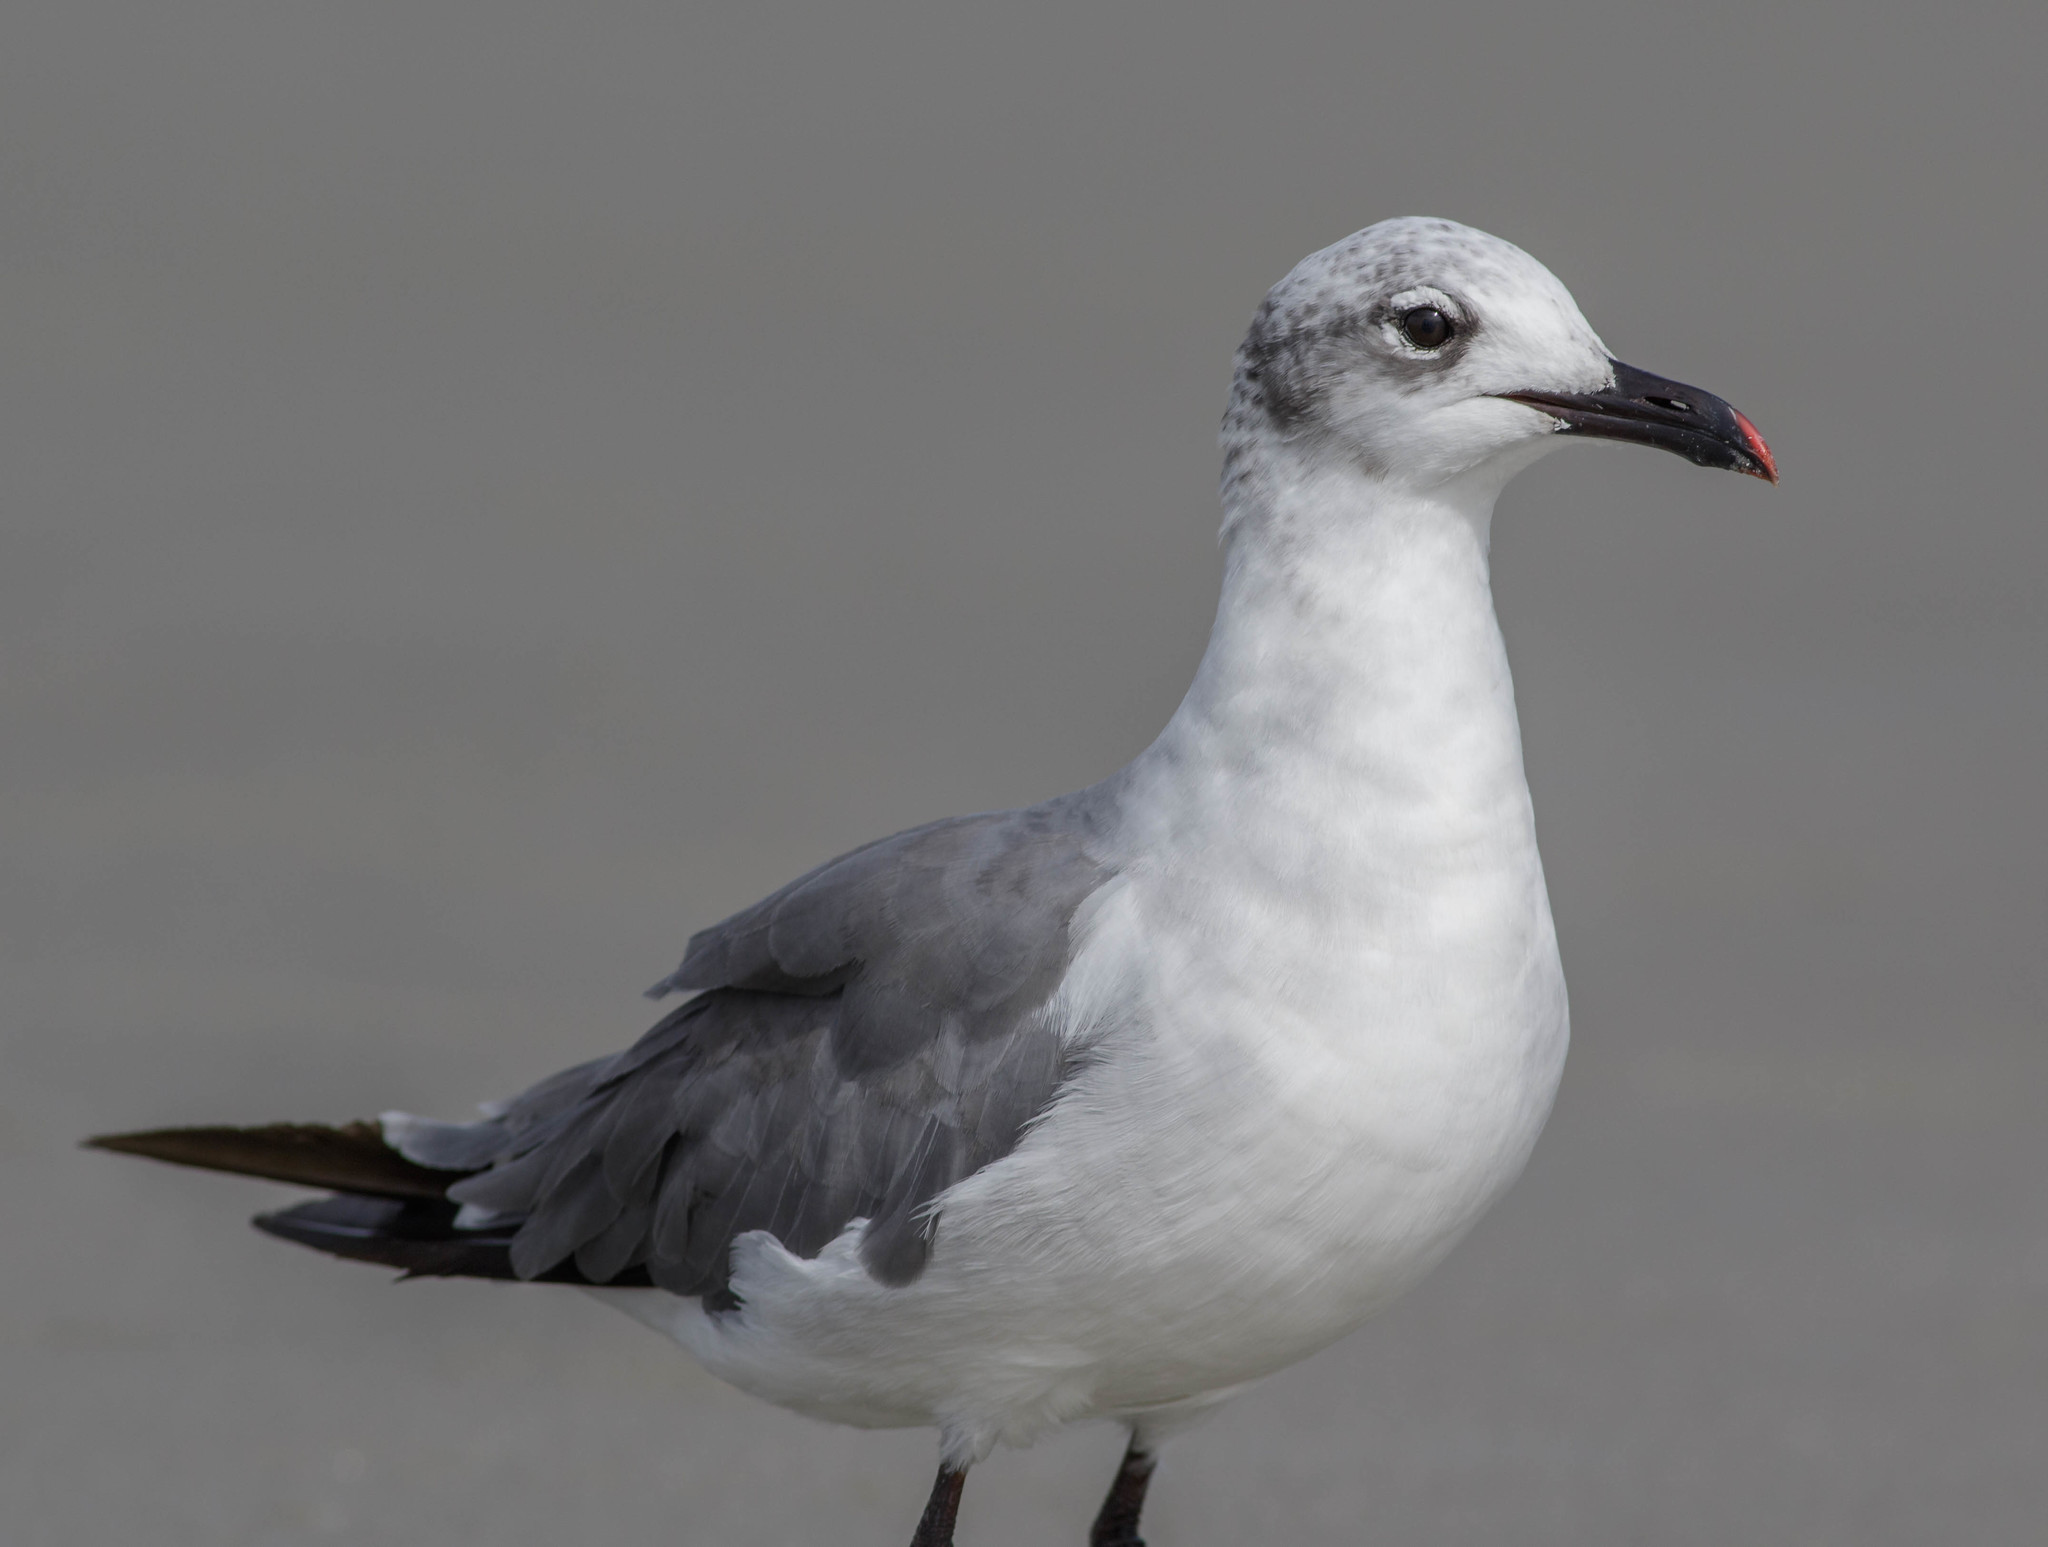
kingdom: Animalia
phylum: Chordata
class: Aves
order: Charadriiformes
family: Laridae
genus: Leucophaeus
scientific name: Leucophaeus atricilla
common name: Laughing gull
